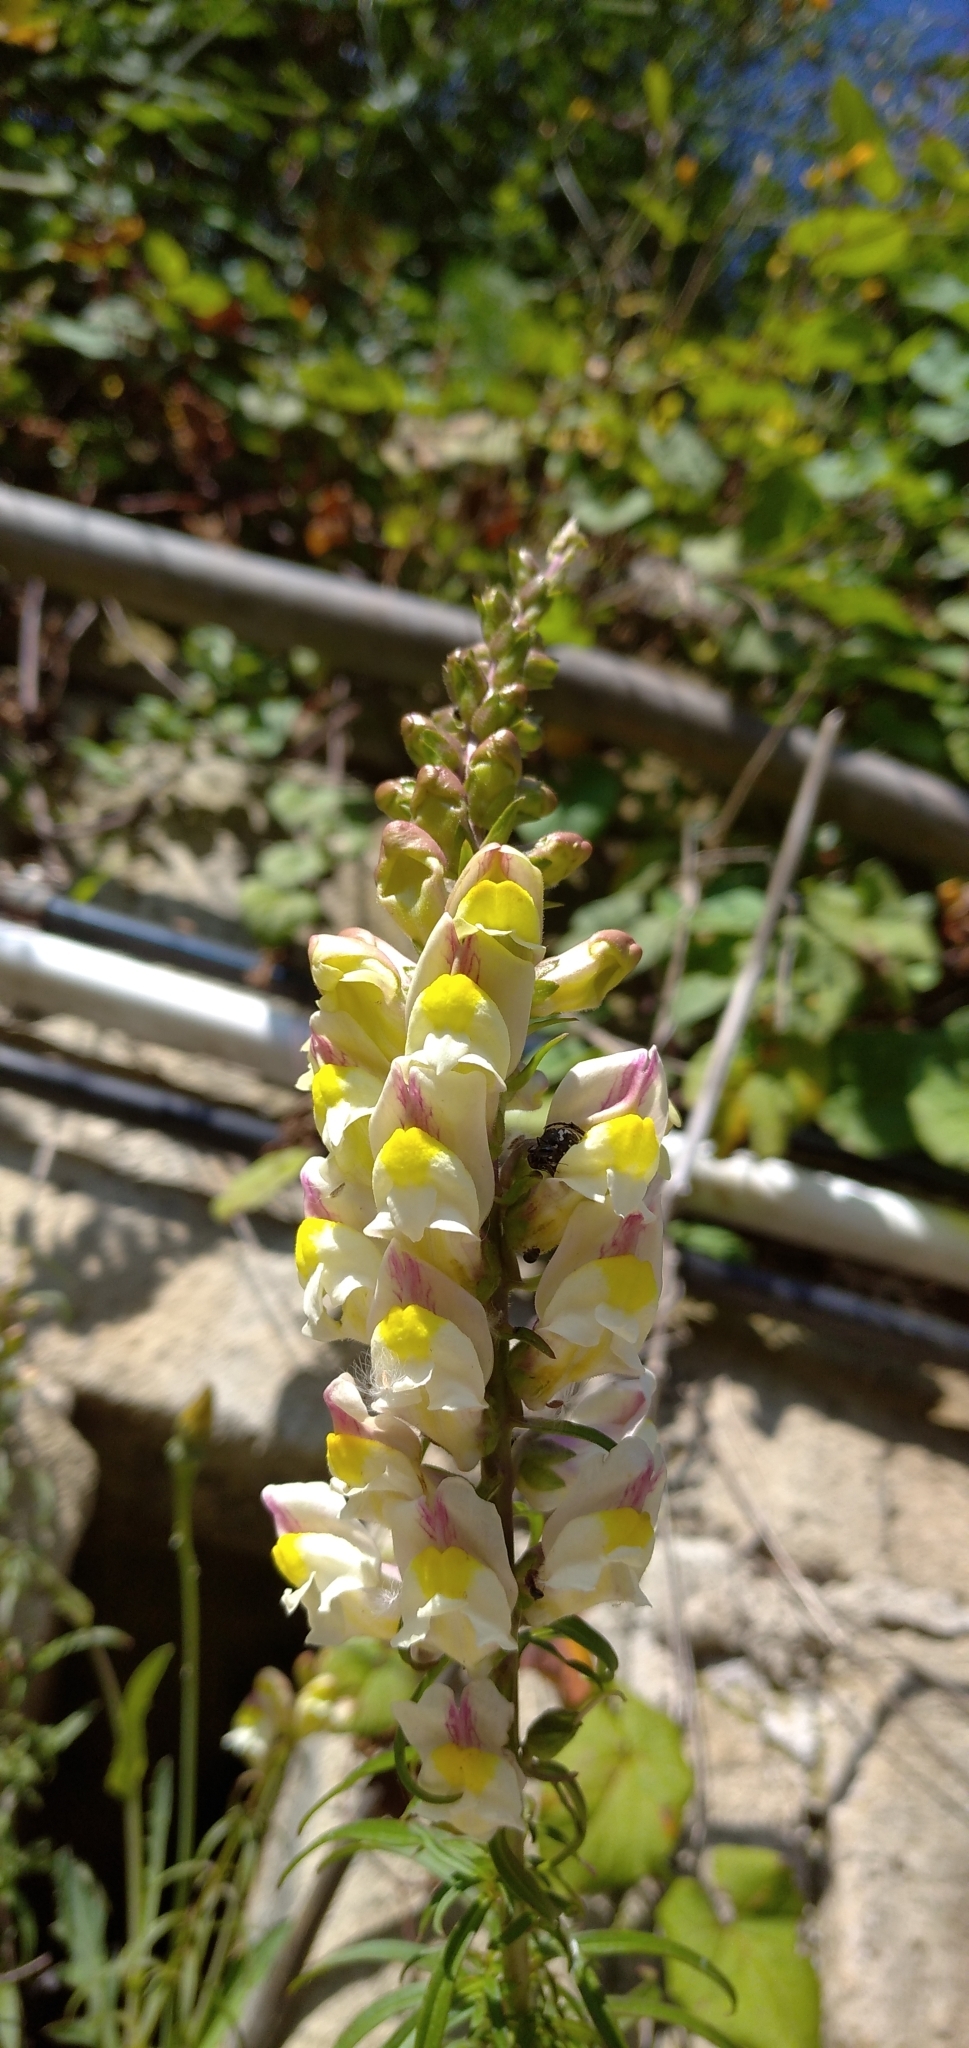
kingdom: Plantae
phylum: Tracheophyta
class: Magnoliopsida
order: Lamiales
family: Plantaginaceae
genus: Antirrhinum
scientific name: Antirrhinum siculum
